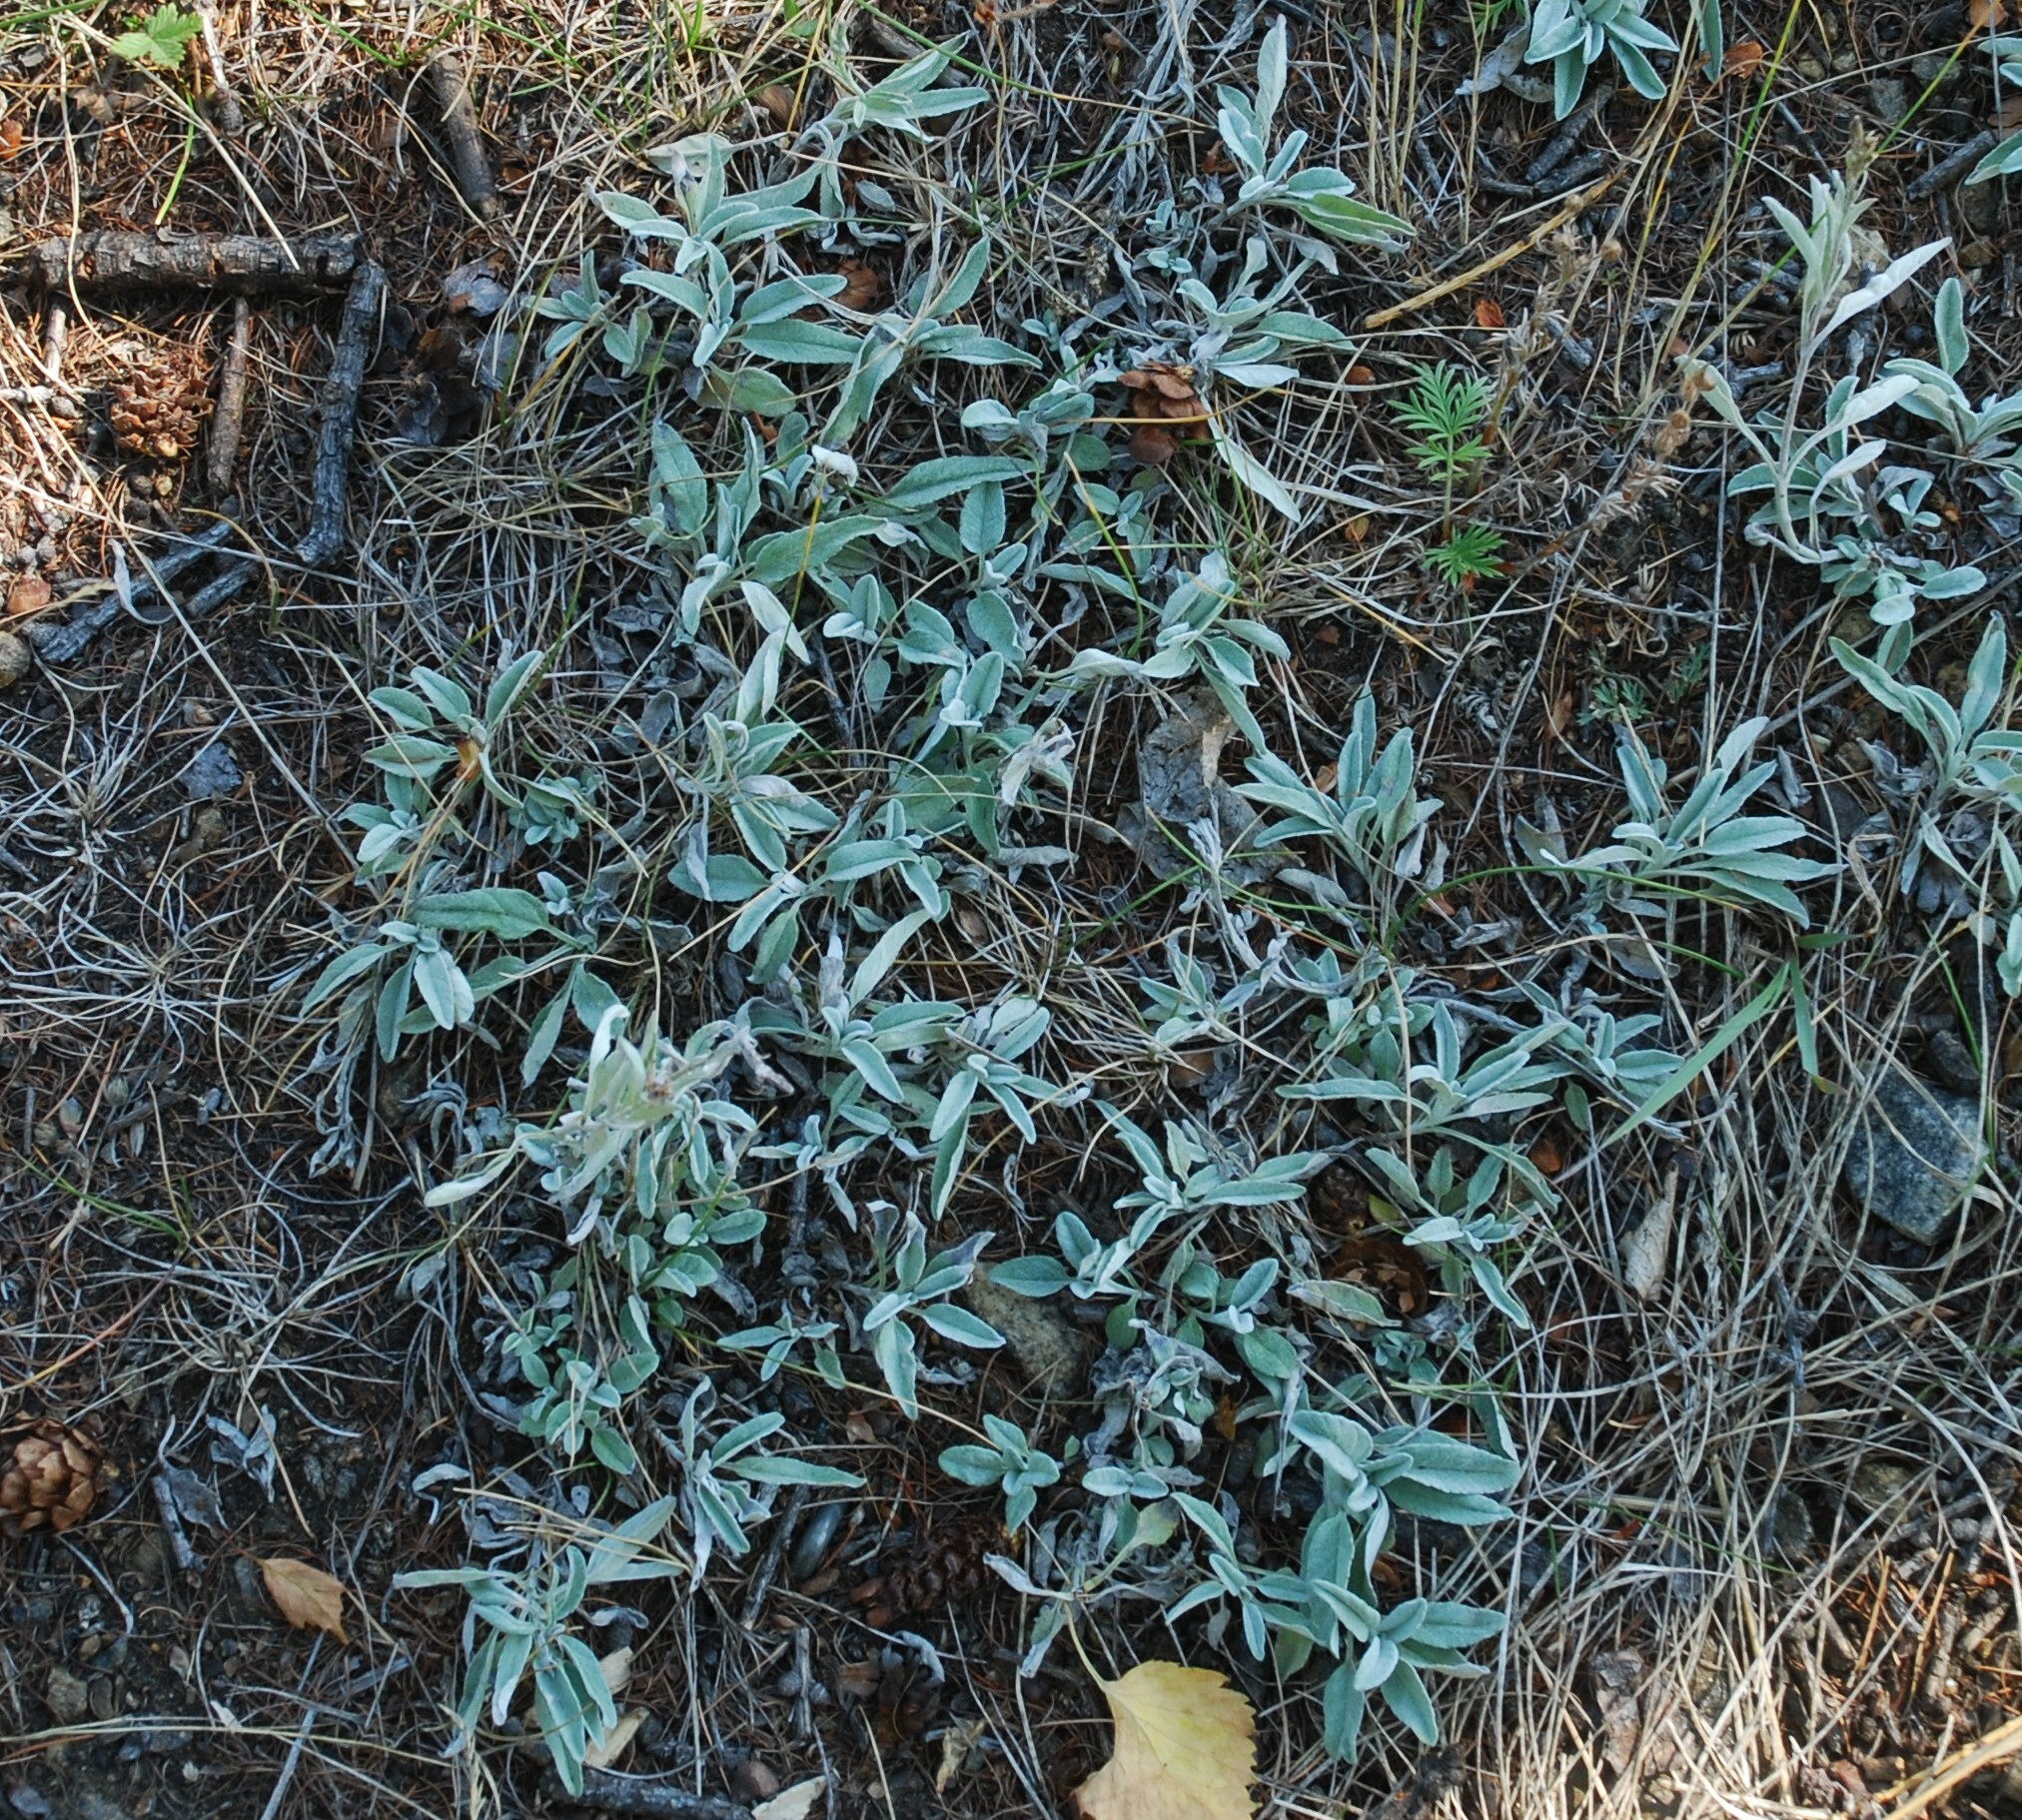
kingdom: Plantae
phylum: Tracheophyta
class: Magnoliopsida
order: Lamiales
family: Plantaginaceae
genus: Veronica
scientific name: Veronica incana
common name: Silver speedwell
